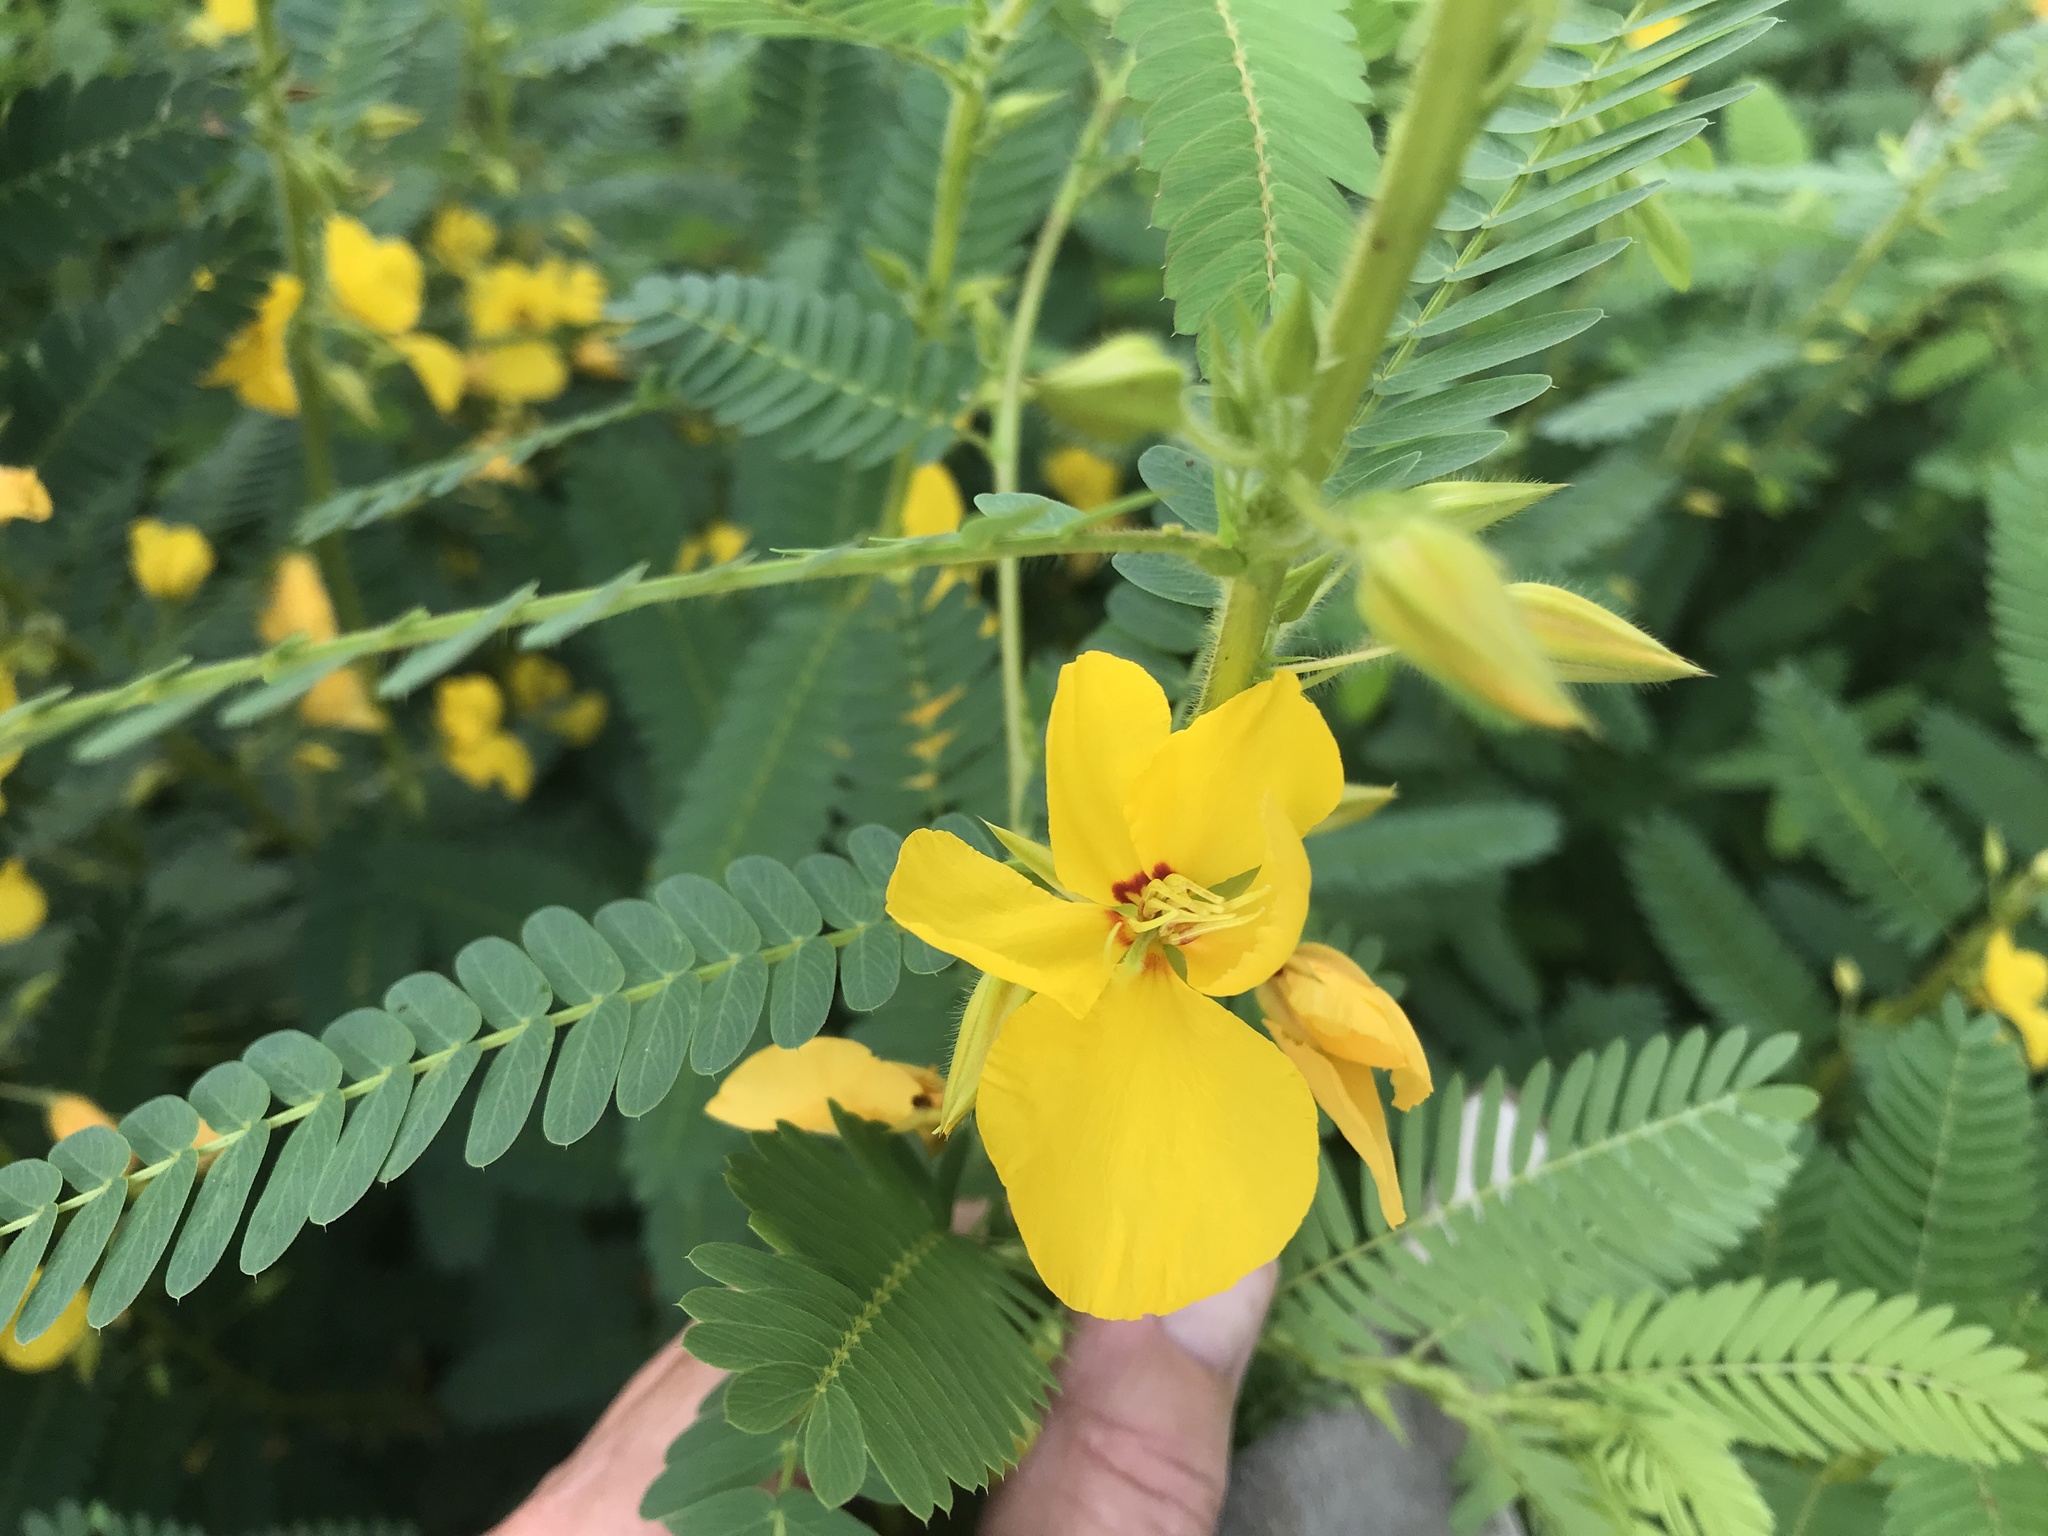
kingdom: Plantae
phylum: Tracheophyta
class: Magnoliopsida
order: Fabales
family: Fabaceae
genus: Chamaecrista
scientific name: Chamaecrista fasciculata
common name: Golden cassia
